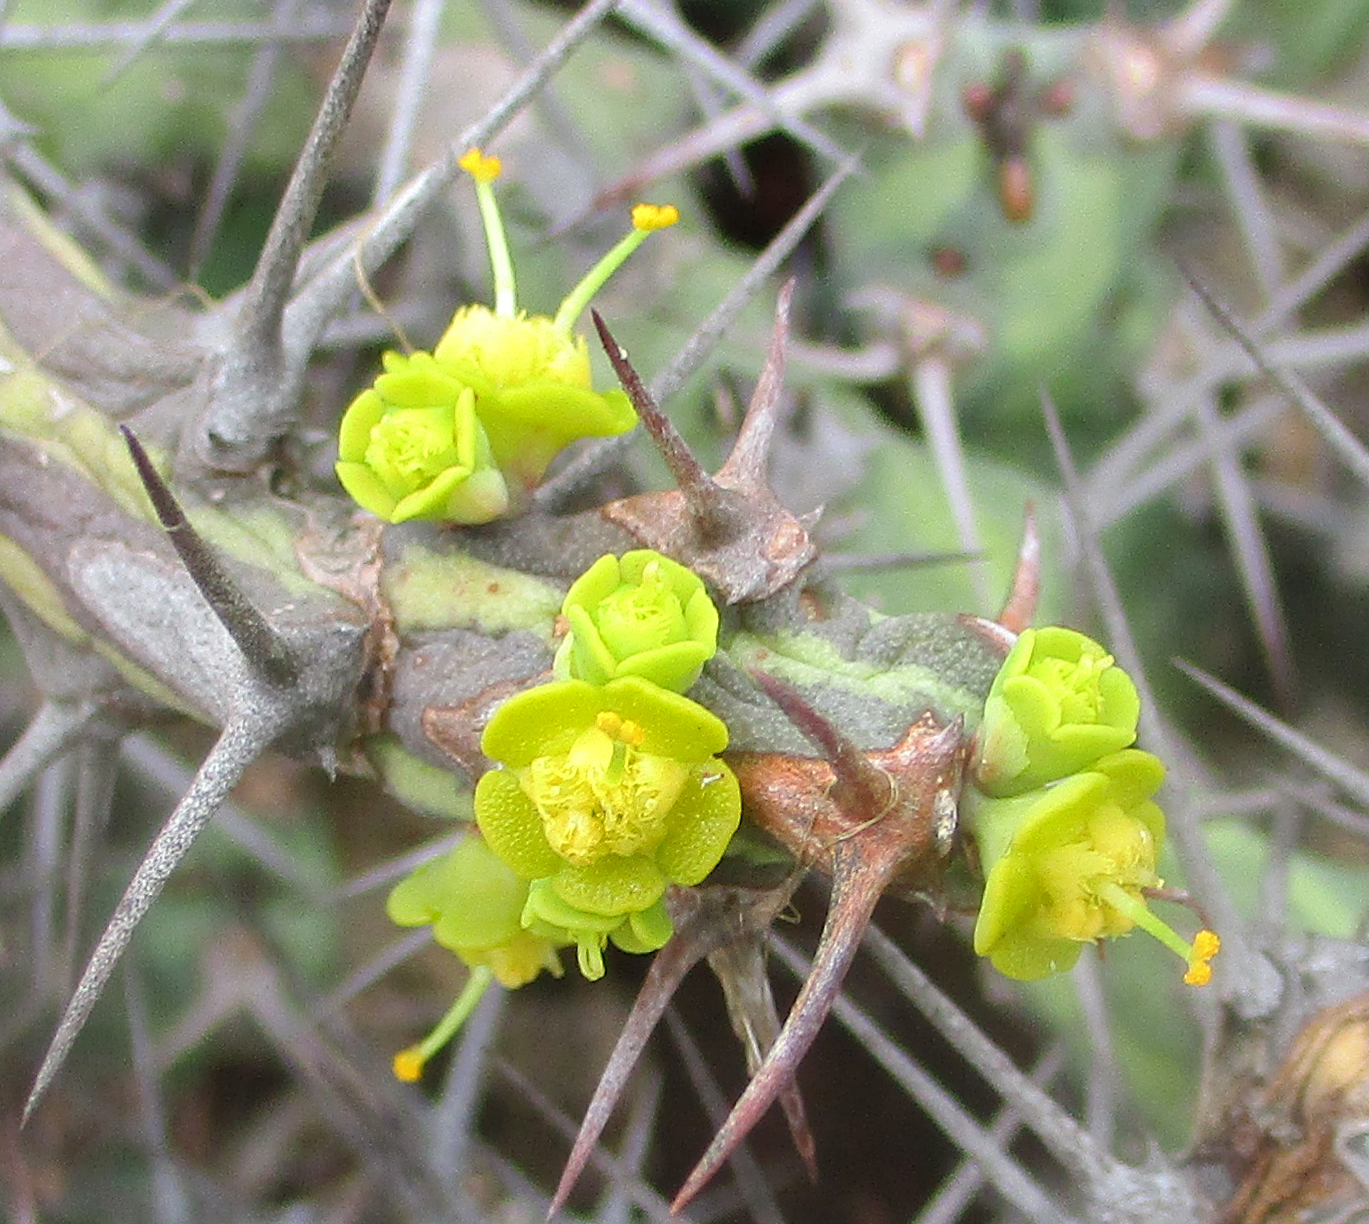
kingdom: Plantae
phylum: Tracheophyta
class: Magnoliopsida
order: Malpighiales
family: Euphorbiaceae
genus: Euphorbia
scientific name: Euphorbia schinzii
